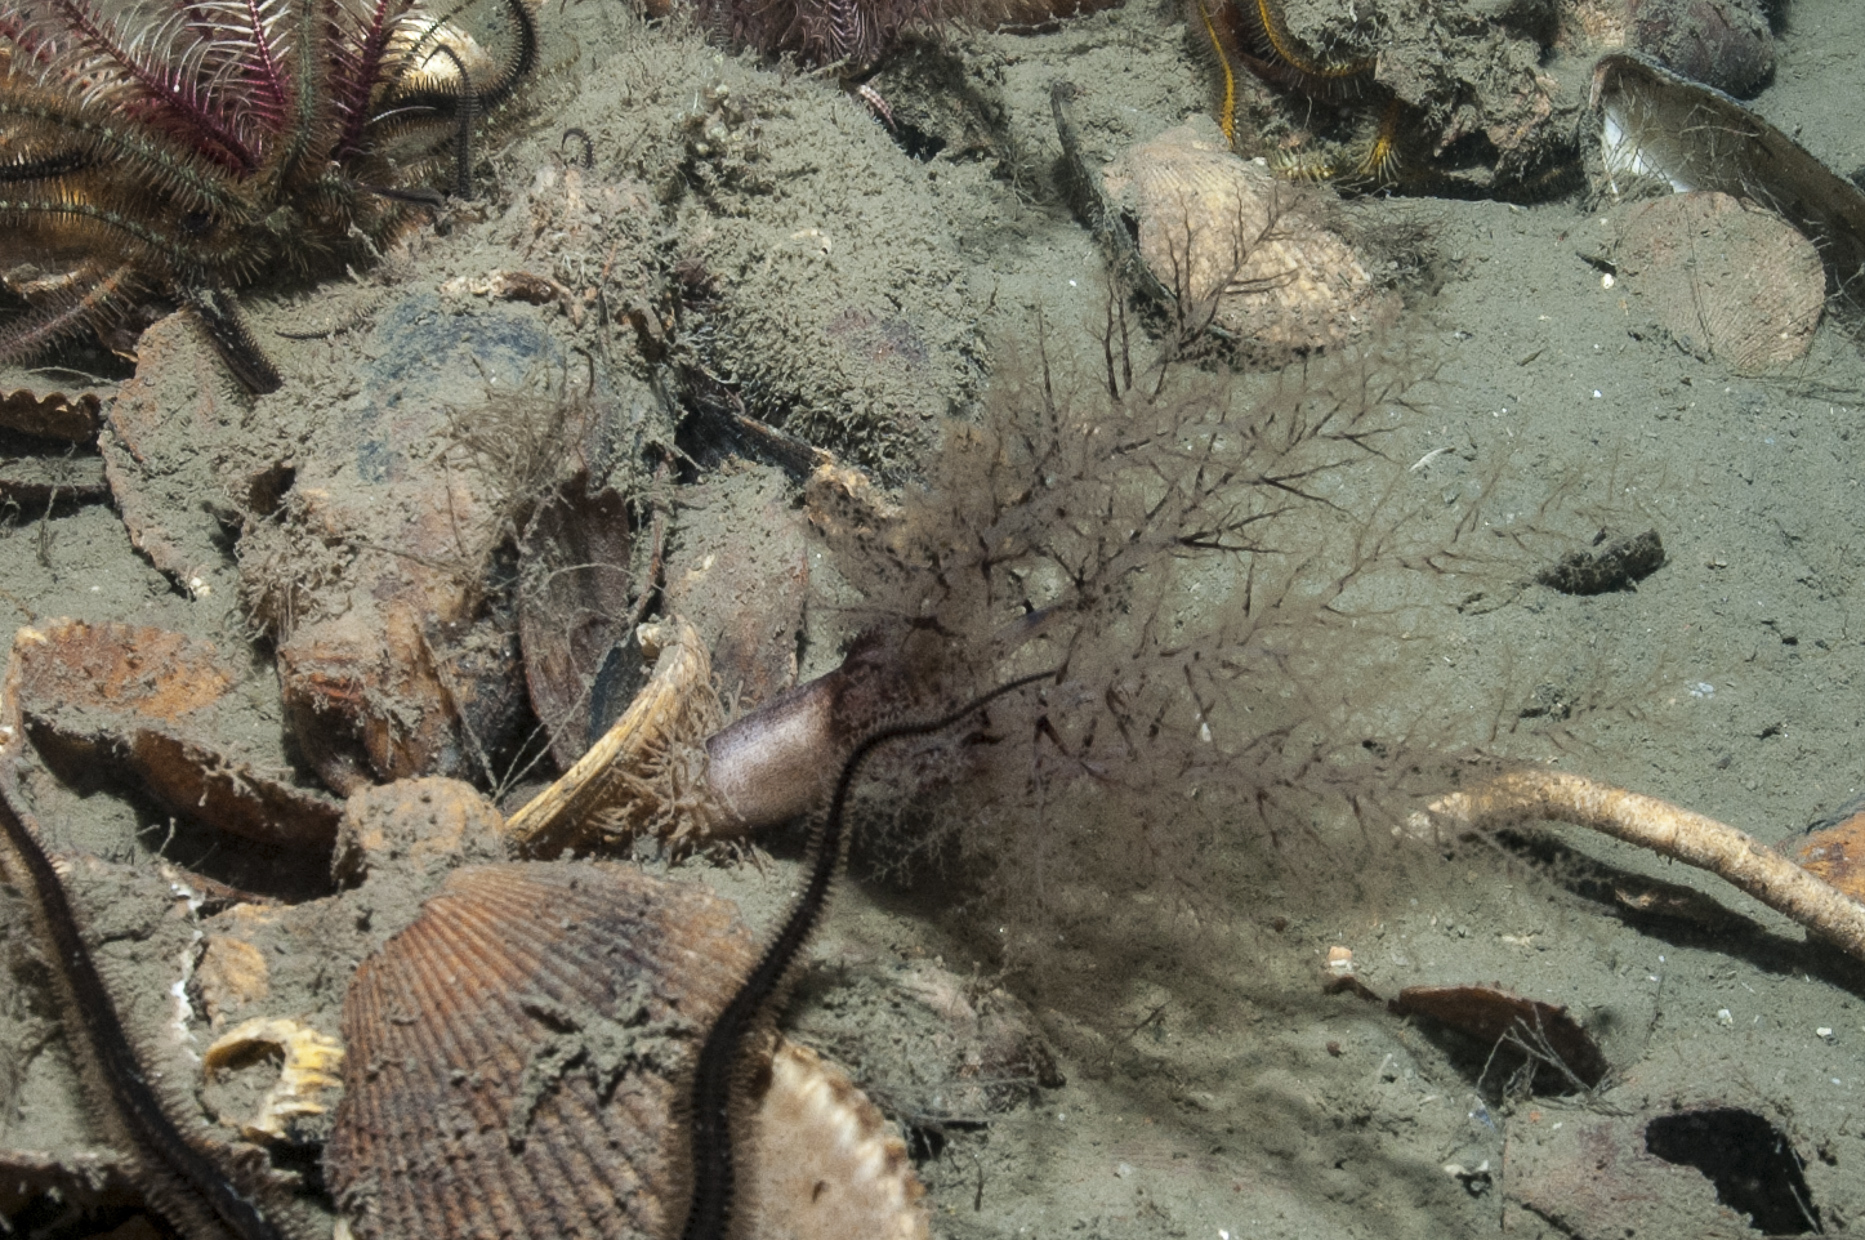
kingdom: Animalia
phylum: Echinodermata
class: Holothuroidea
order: Dendrochirotida
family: Phyllophoridae
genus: Thyone
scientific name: Thyone roscovita
